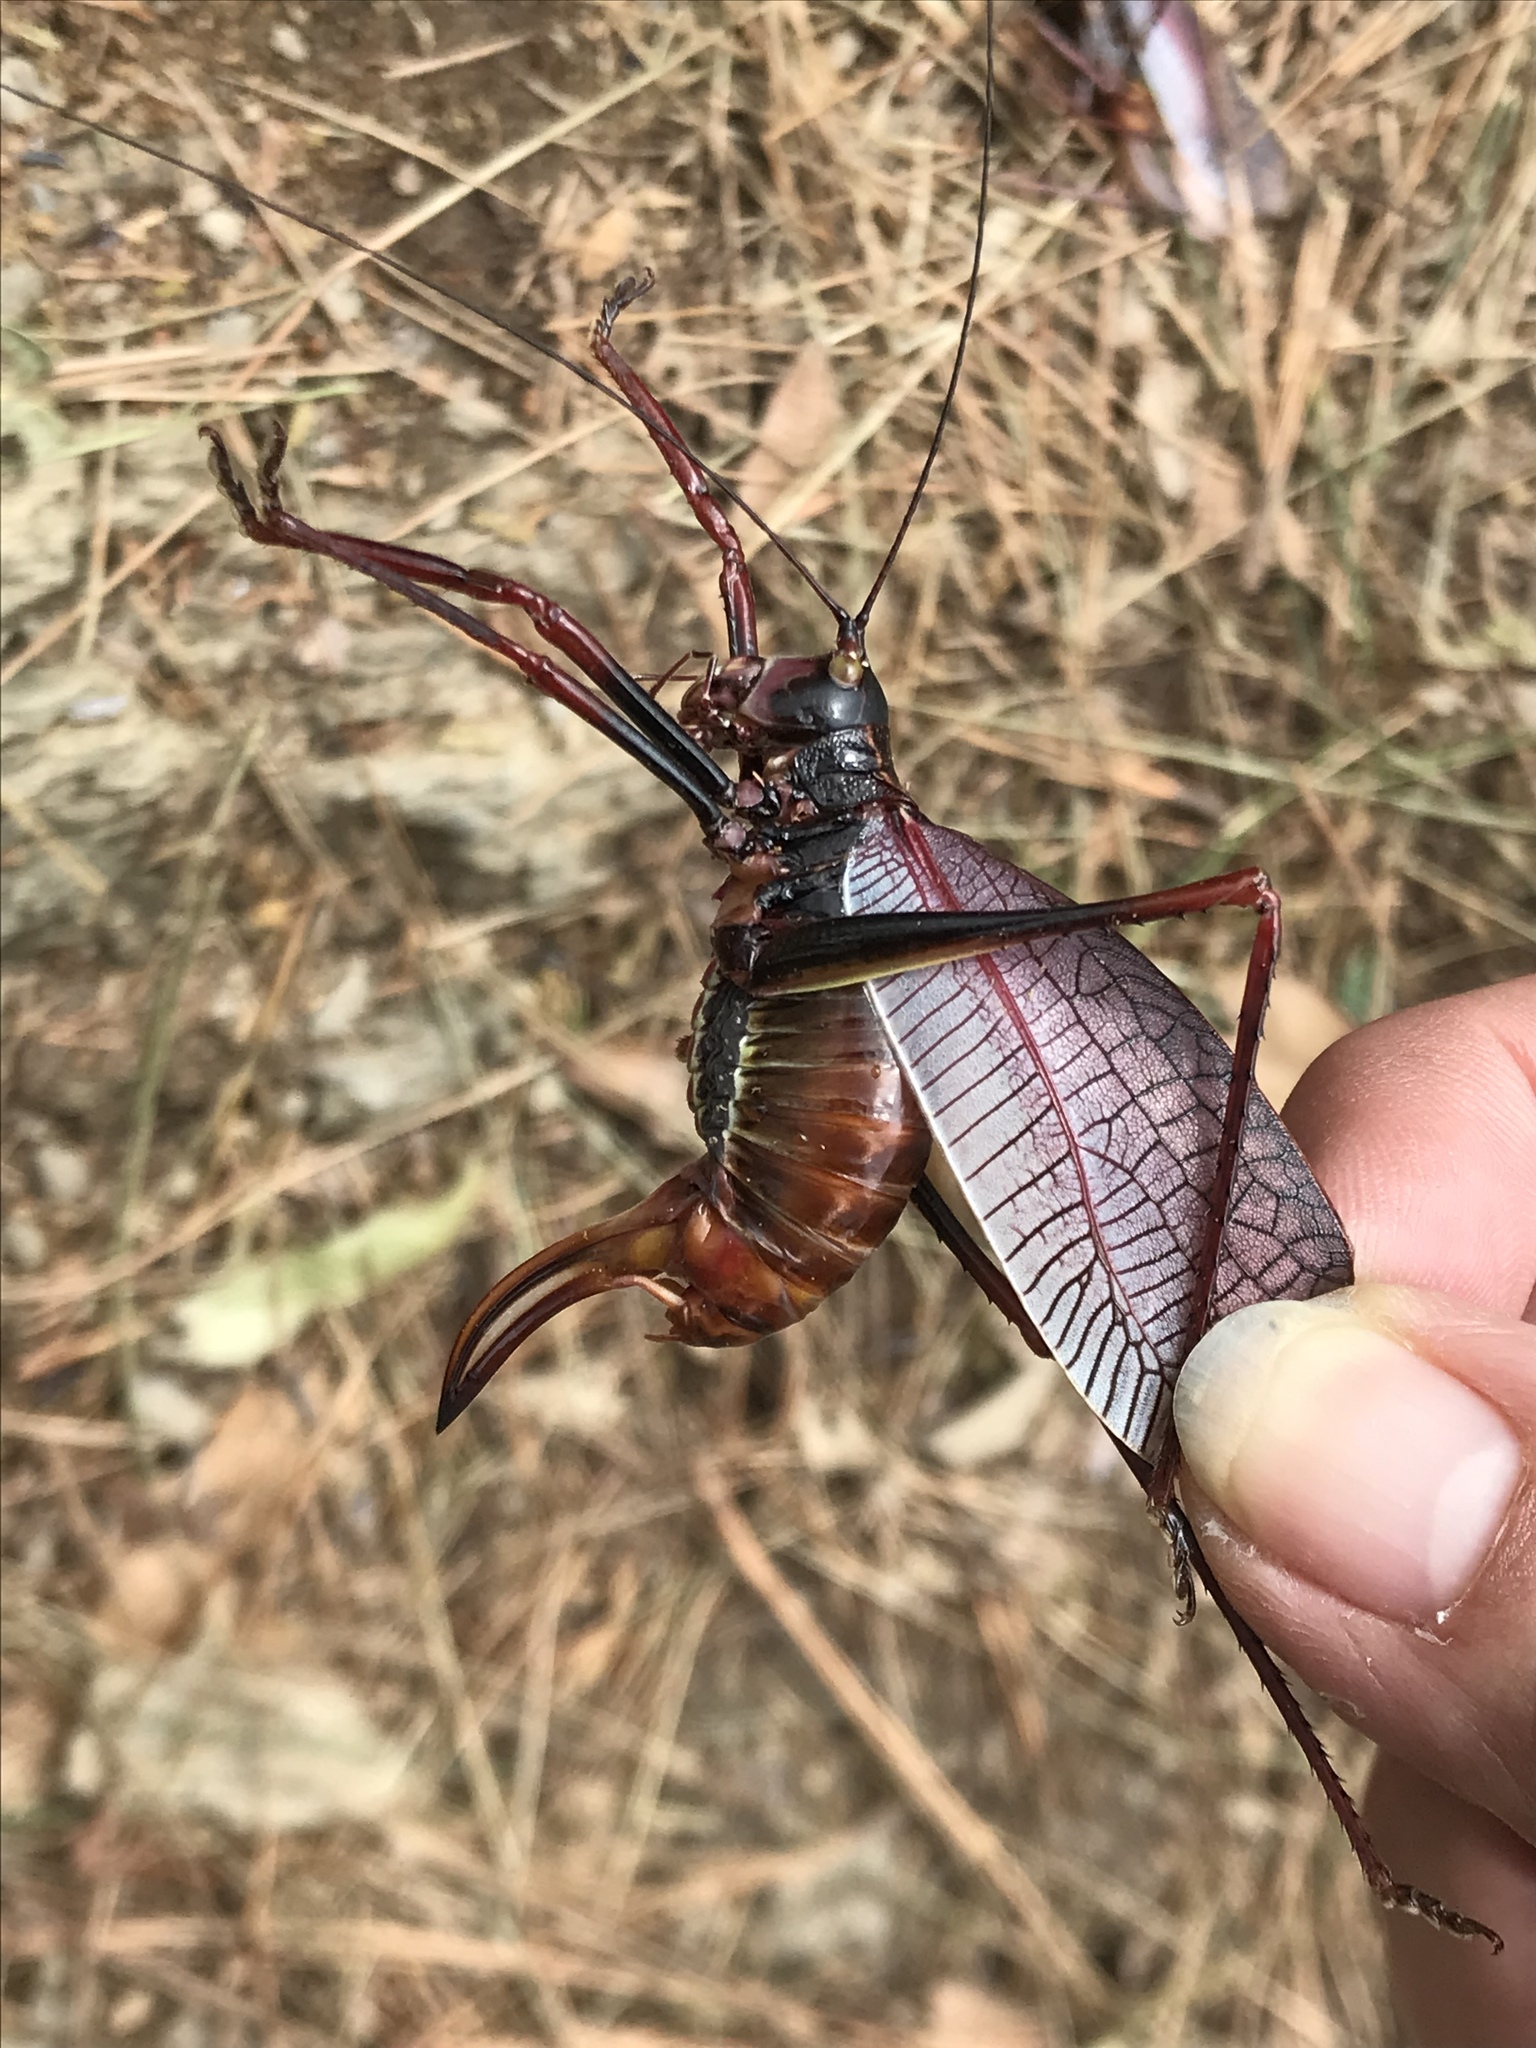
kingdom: Animalia
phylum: Arthropoda
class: Insecta
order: Orthoptera
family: Tettigoniidae
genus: Pterophylla
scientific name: Pterophylla beltrani
